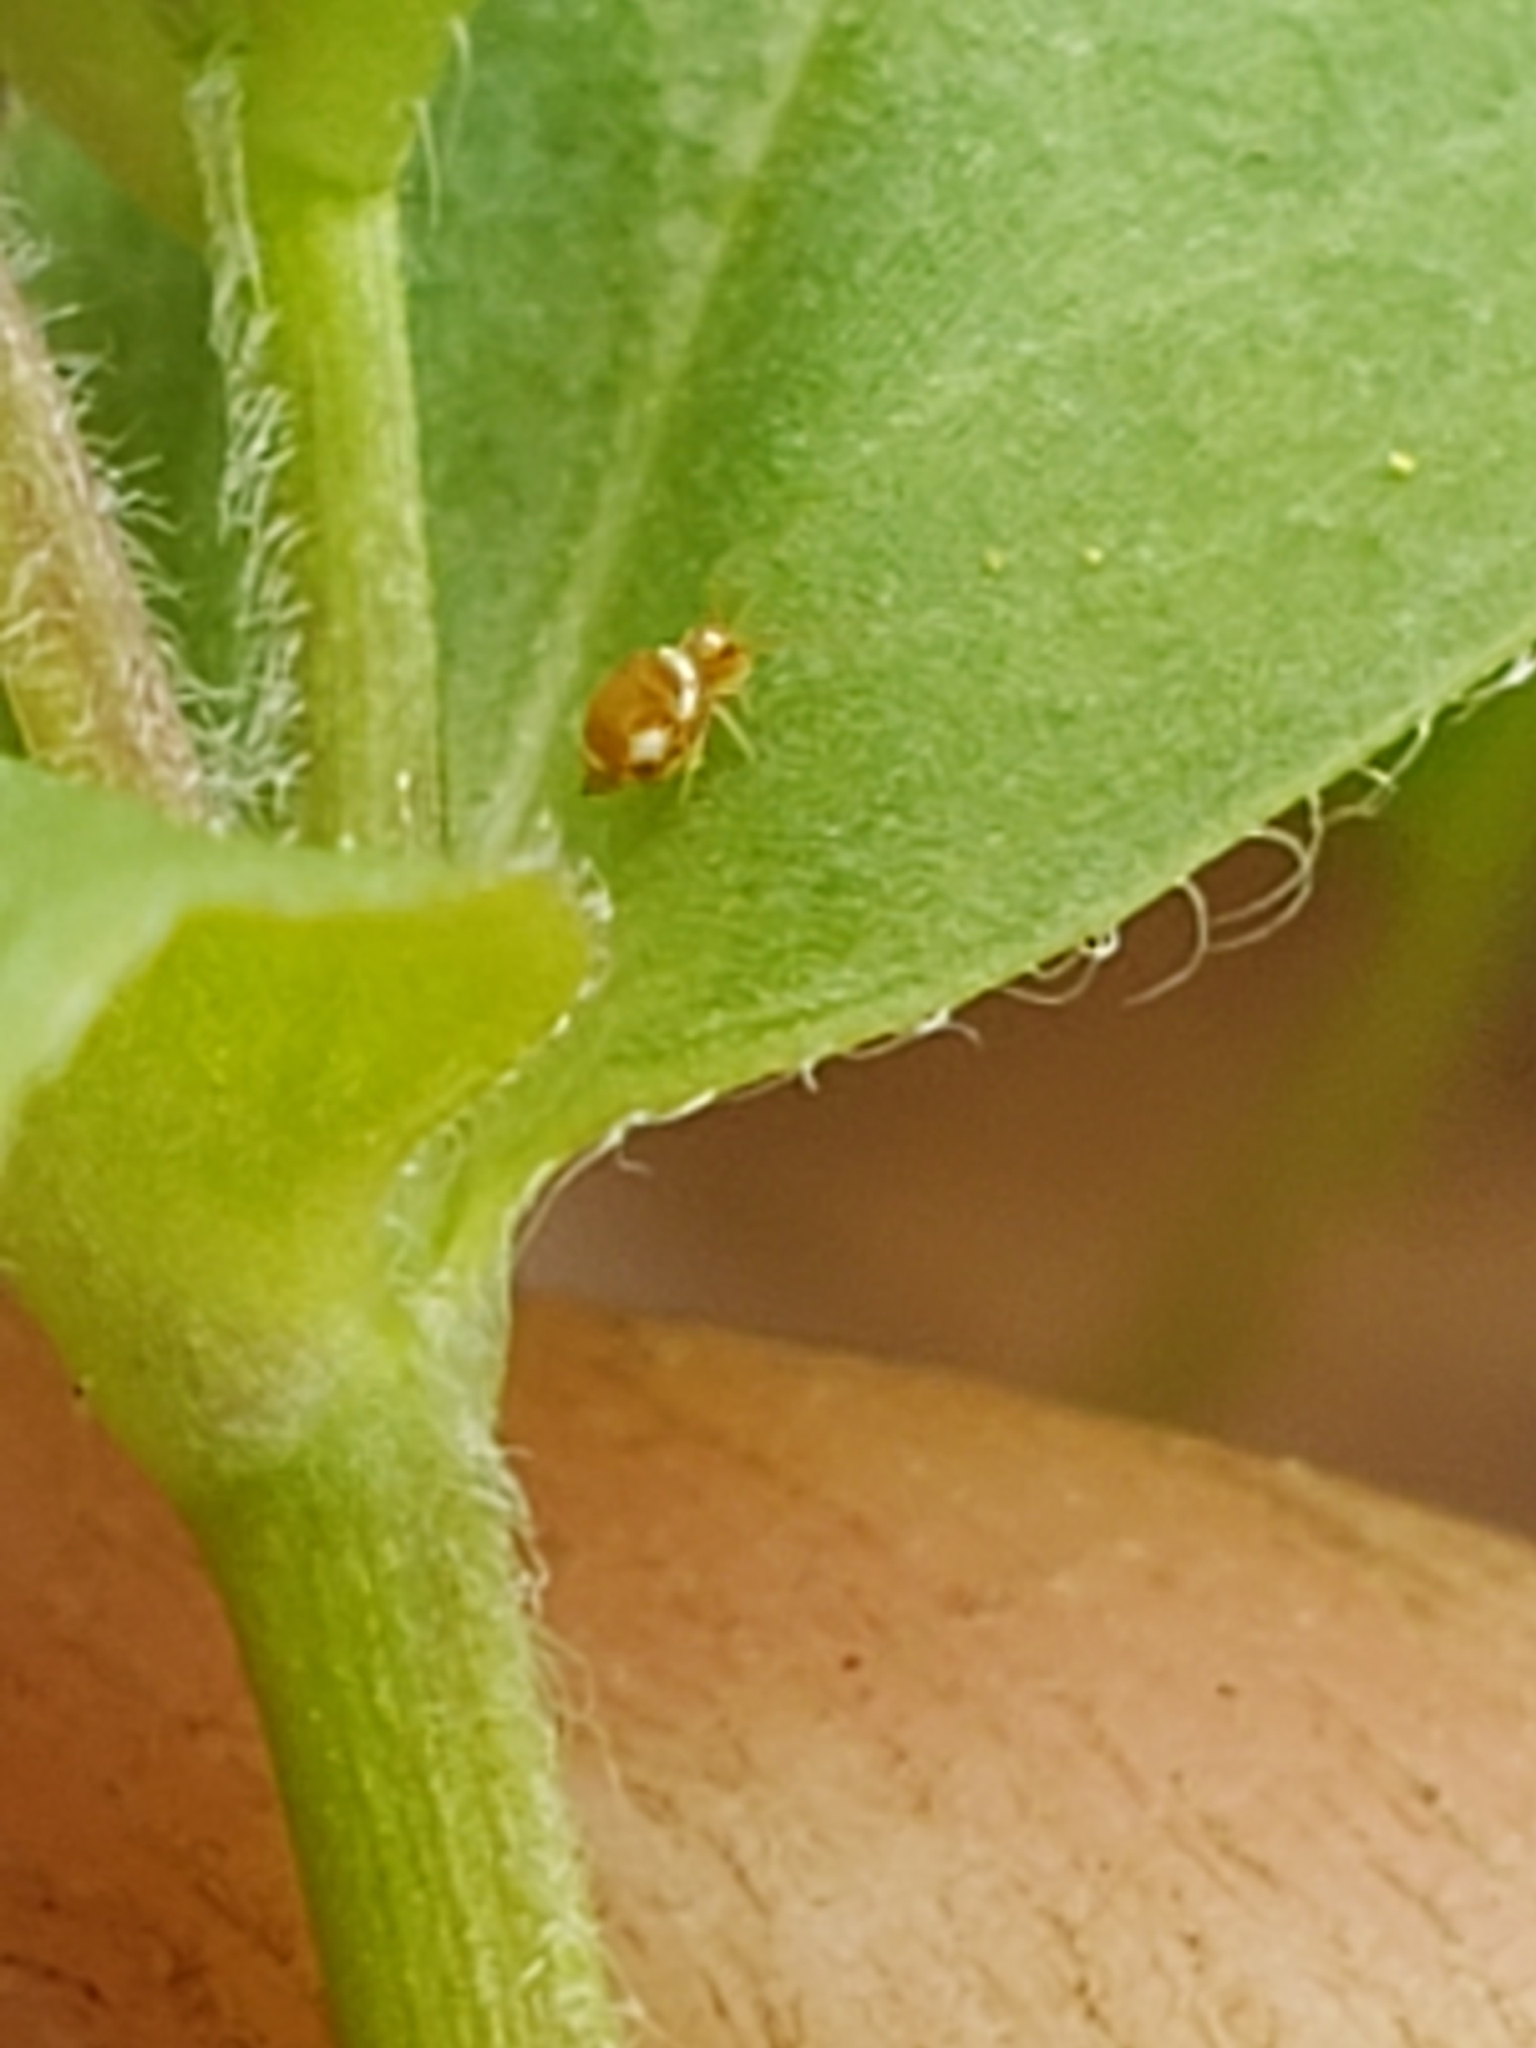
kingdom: Animalia
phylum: Arthropoda
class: Collembola
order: Symphypleona
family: Katiannidae
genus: Katiannina
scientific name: Katiannina macgillivrayi
